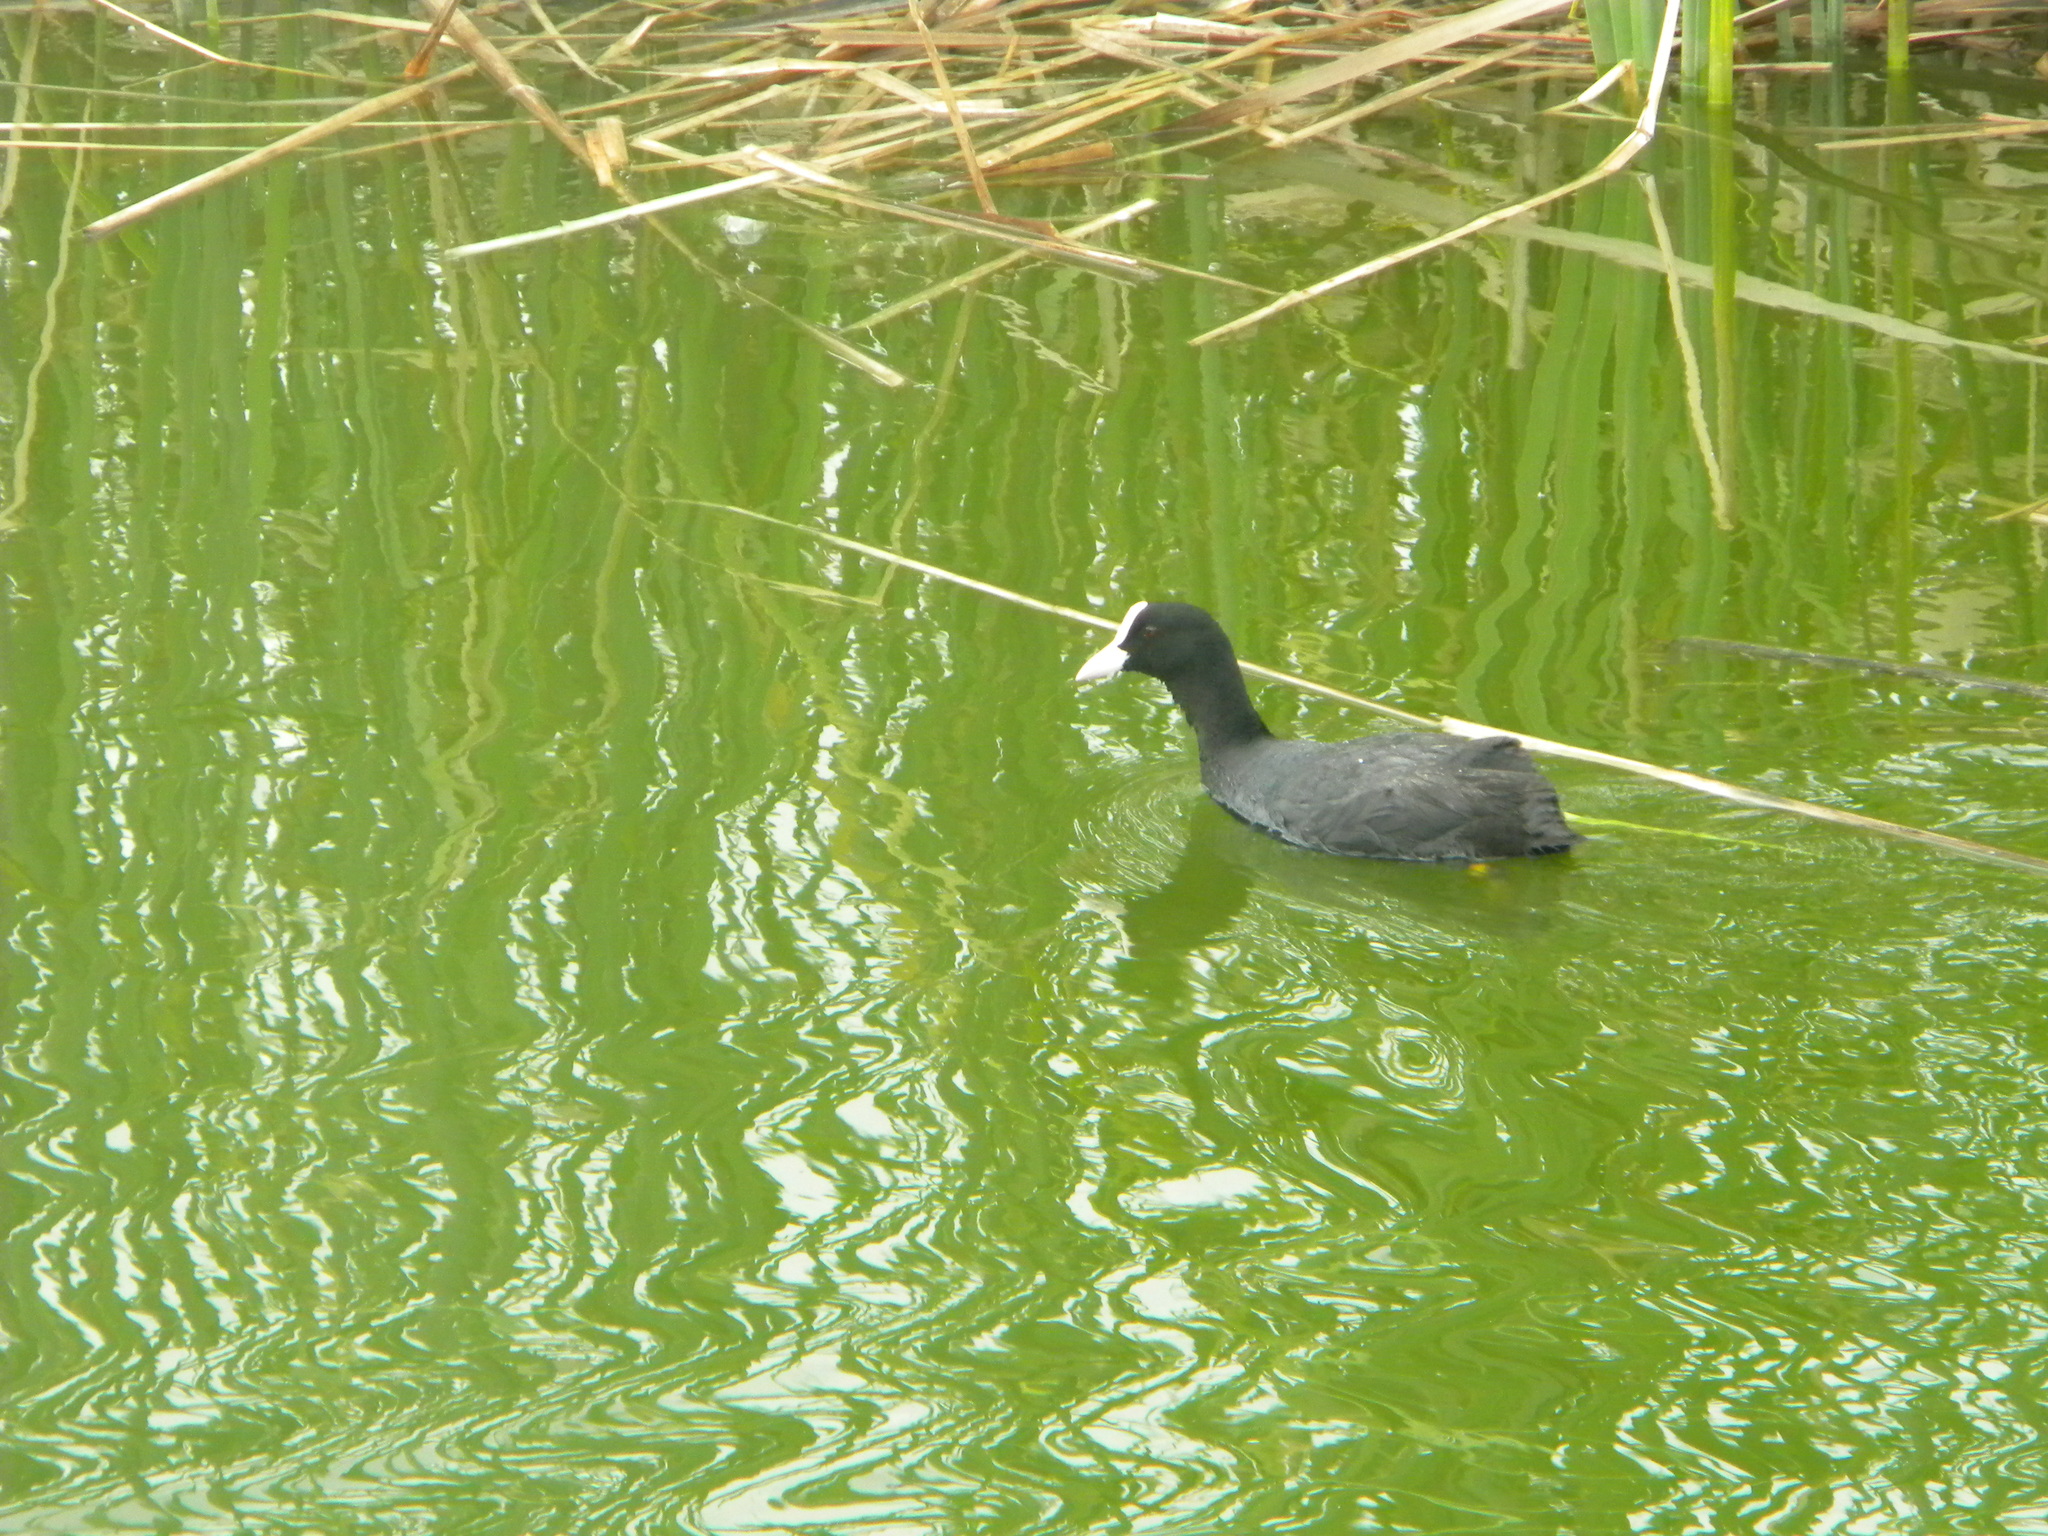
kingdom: Animalia
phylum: Chordata
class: Aves
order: Gruiformes
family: Rallidae
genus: Fulica
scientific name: Fulica atra
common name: Eurasian coot
